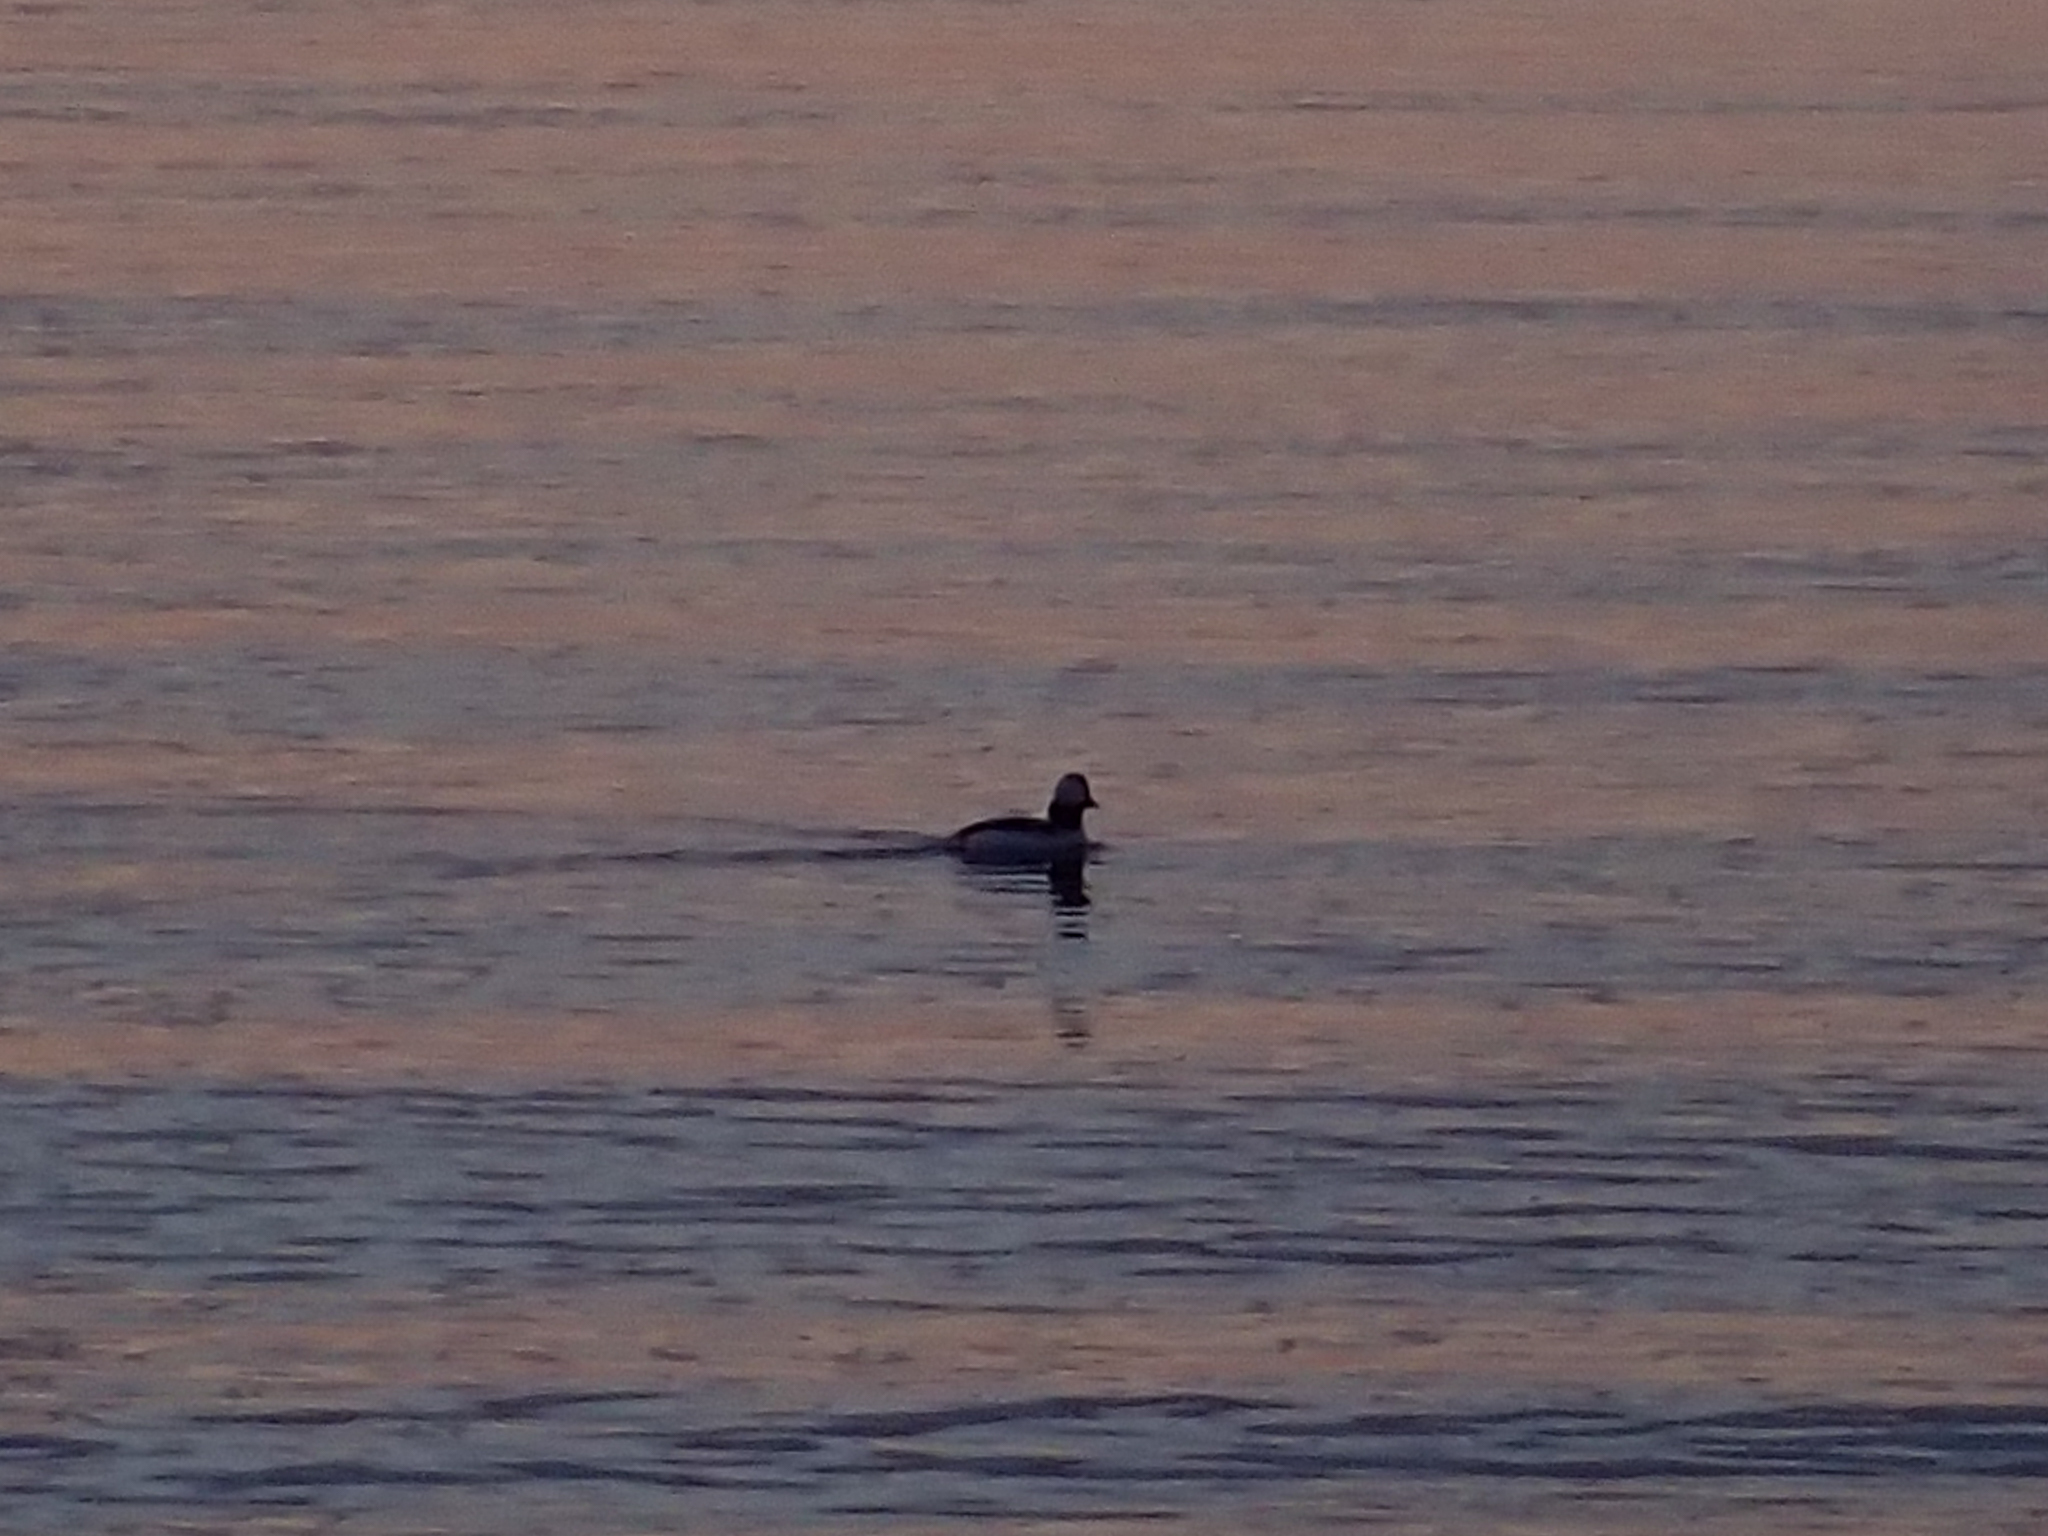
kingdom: Animalia
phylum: Chordata
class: Aves
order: Anseriformes
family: Anatidae
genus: Bucephala
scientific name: Bucephala albeola
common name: Bufflehead
